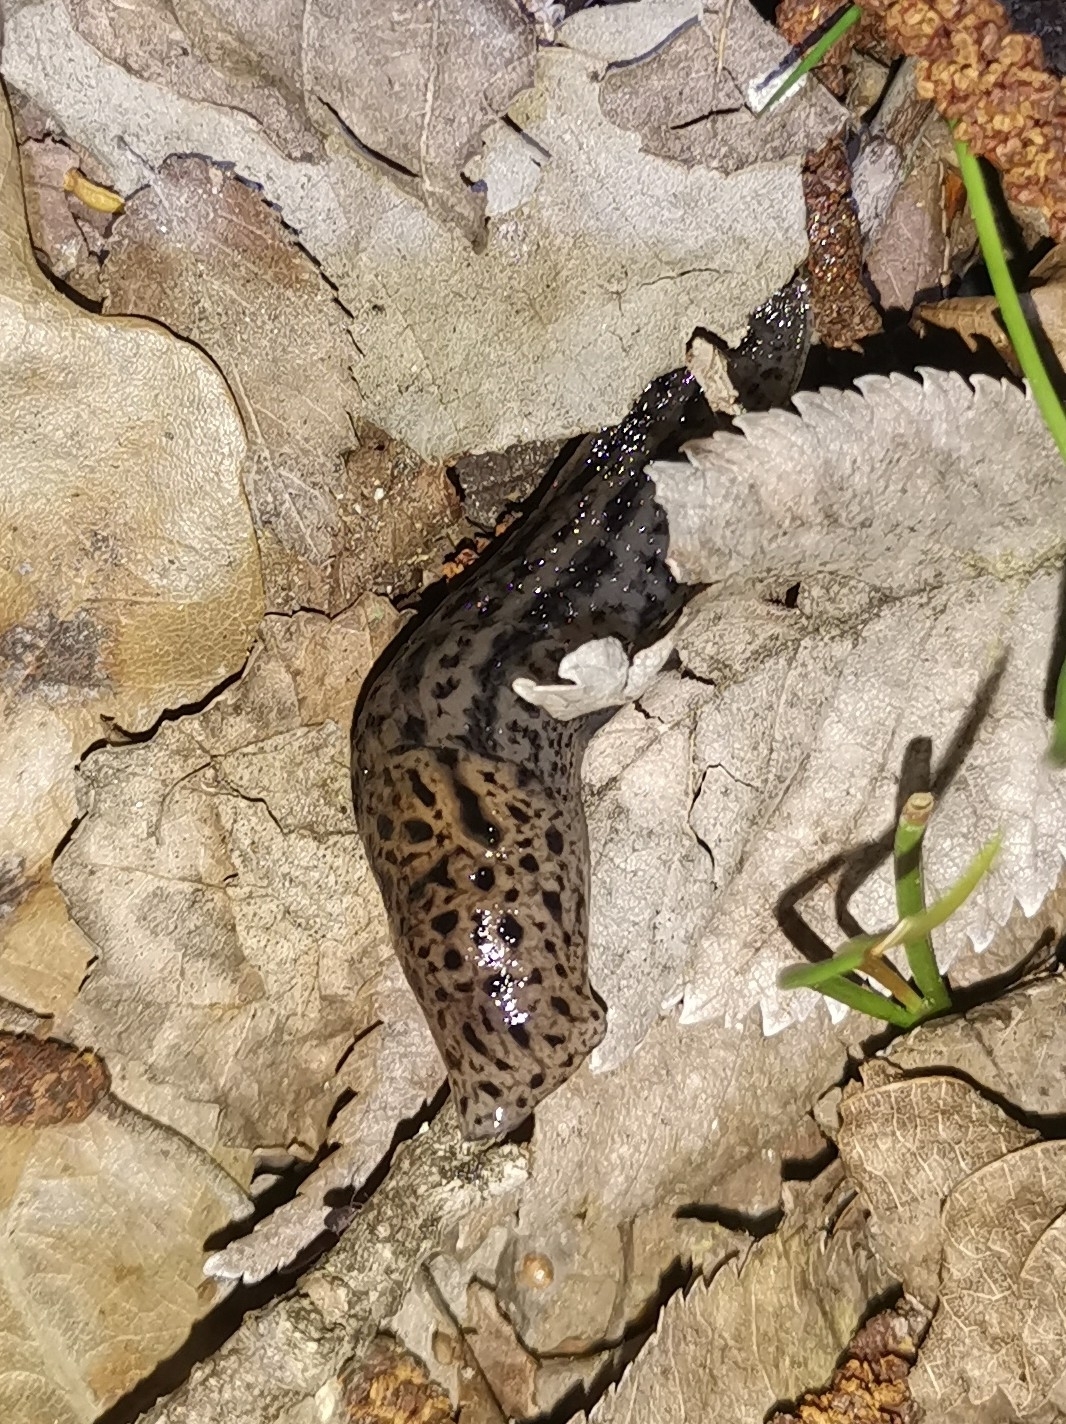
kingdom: Animalia
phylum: Mollusca
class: Gastropoda
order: Stylommatophora
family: Limacidae
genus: Limax
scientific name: Limax maximus
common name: Great grey slug
